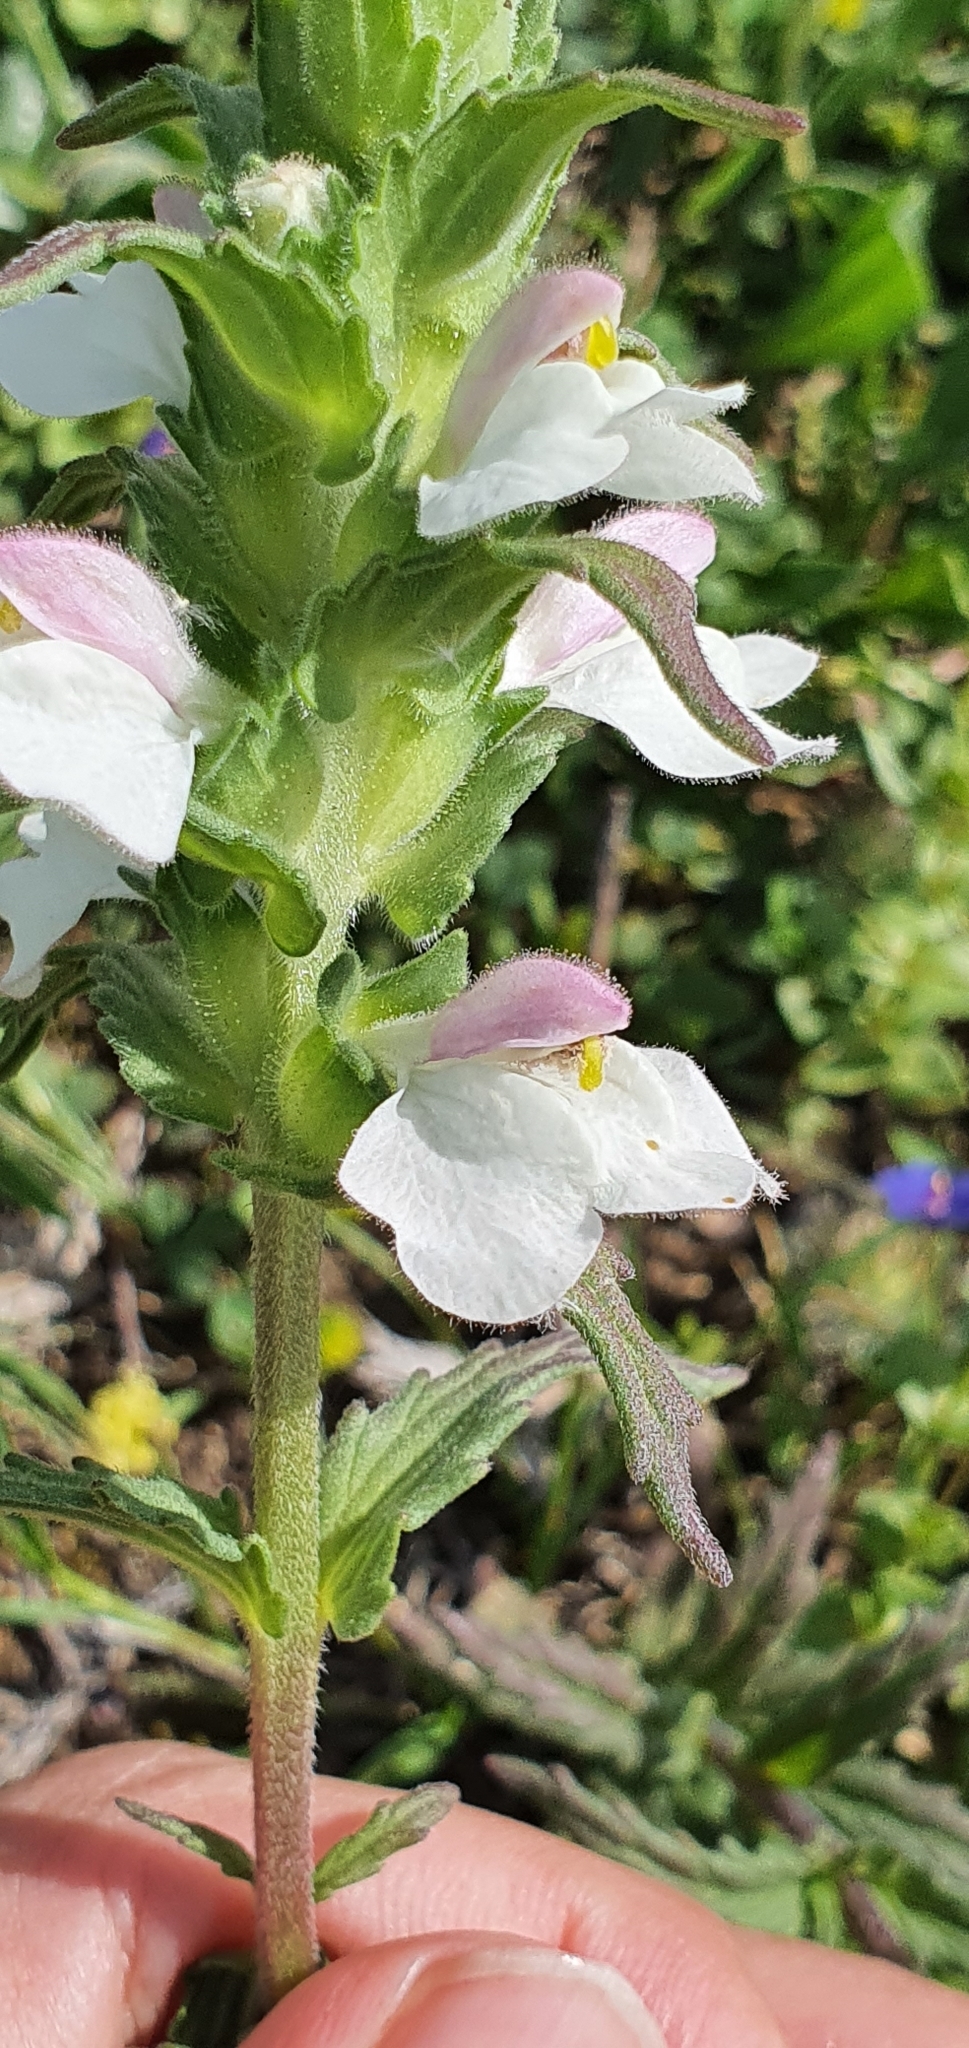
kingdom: Plantae
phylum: Tracheophyta
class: Magnoliopsida
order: Lamiales
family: Orobanchaceae
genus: Bellardia
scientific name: Bellardia trixago
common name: Mediterranean lineseed
